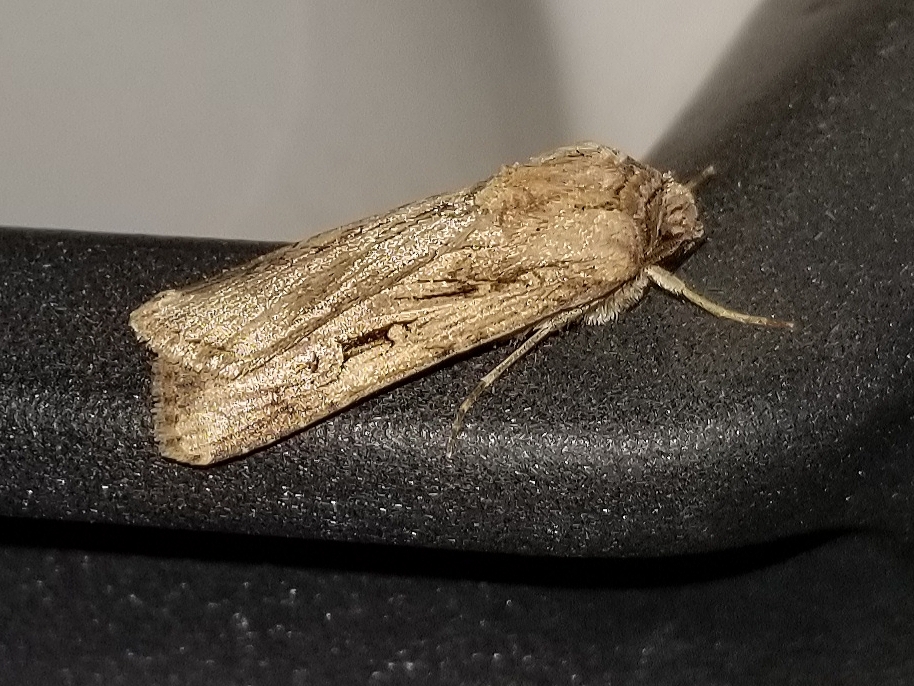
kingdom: Animalia
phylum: Arthropoda
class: Insecta
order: Lepidoptera
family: Noctuidae
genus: Feltia
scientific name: Feltia subterranea
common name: Granulate cutworm
